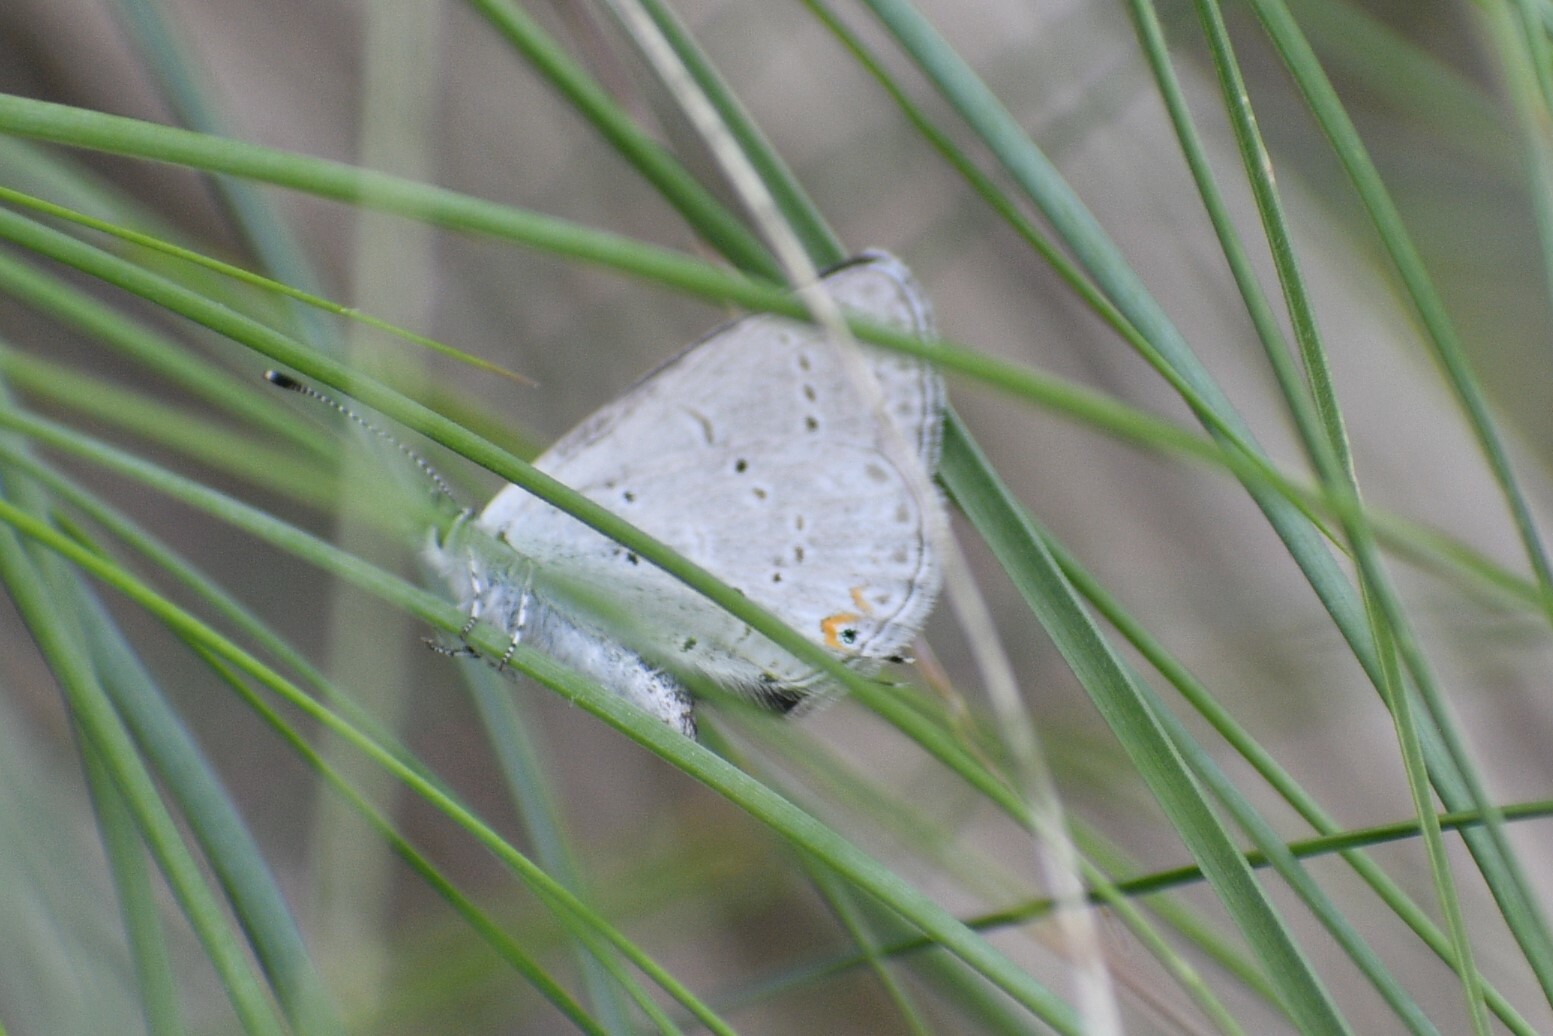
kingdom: Animalia
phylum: Arthropoda
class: Insecta
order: Lepidoptera
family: Lycaenidae
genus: Elkalyce
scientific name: Elkalyce amyntula
